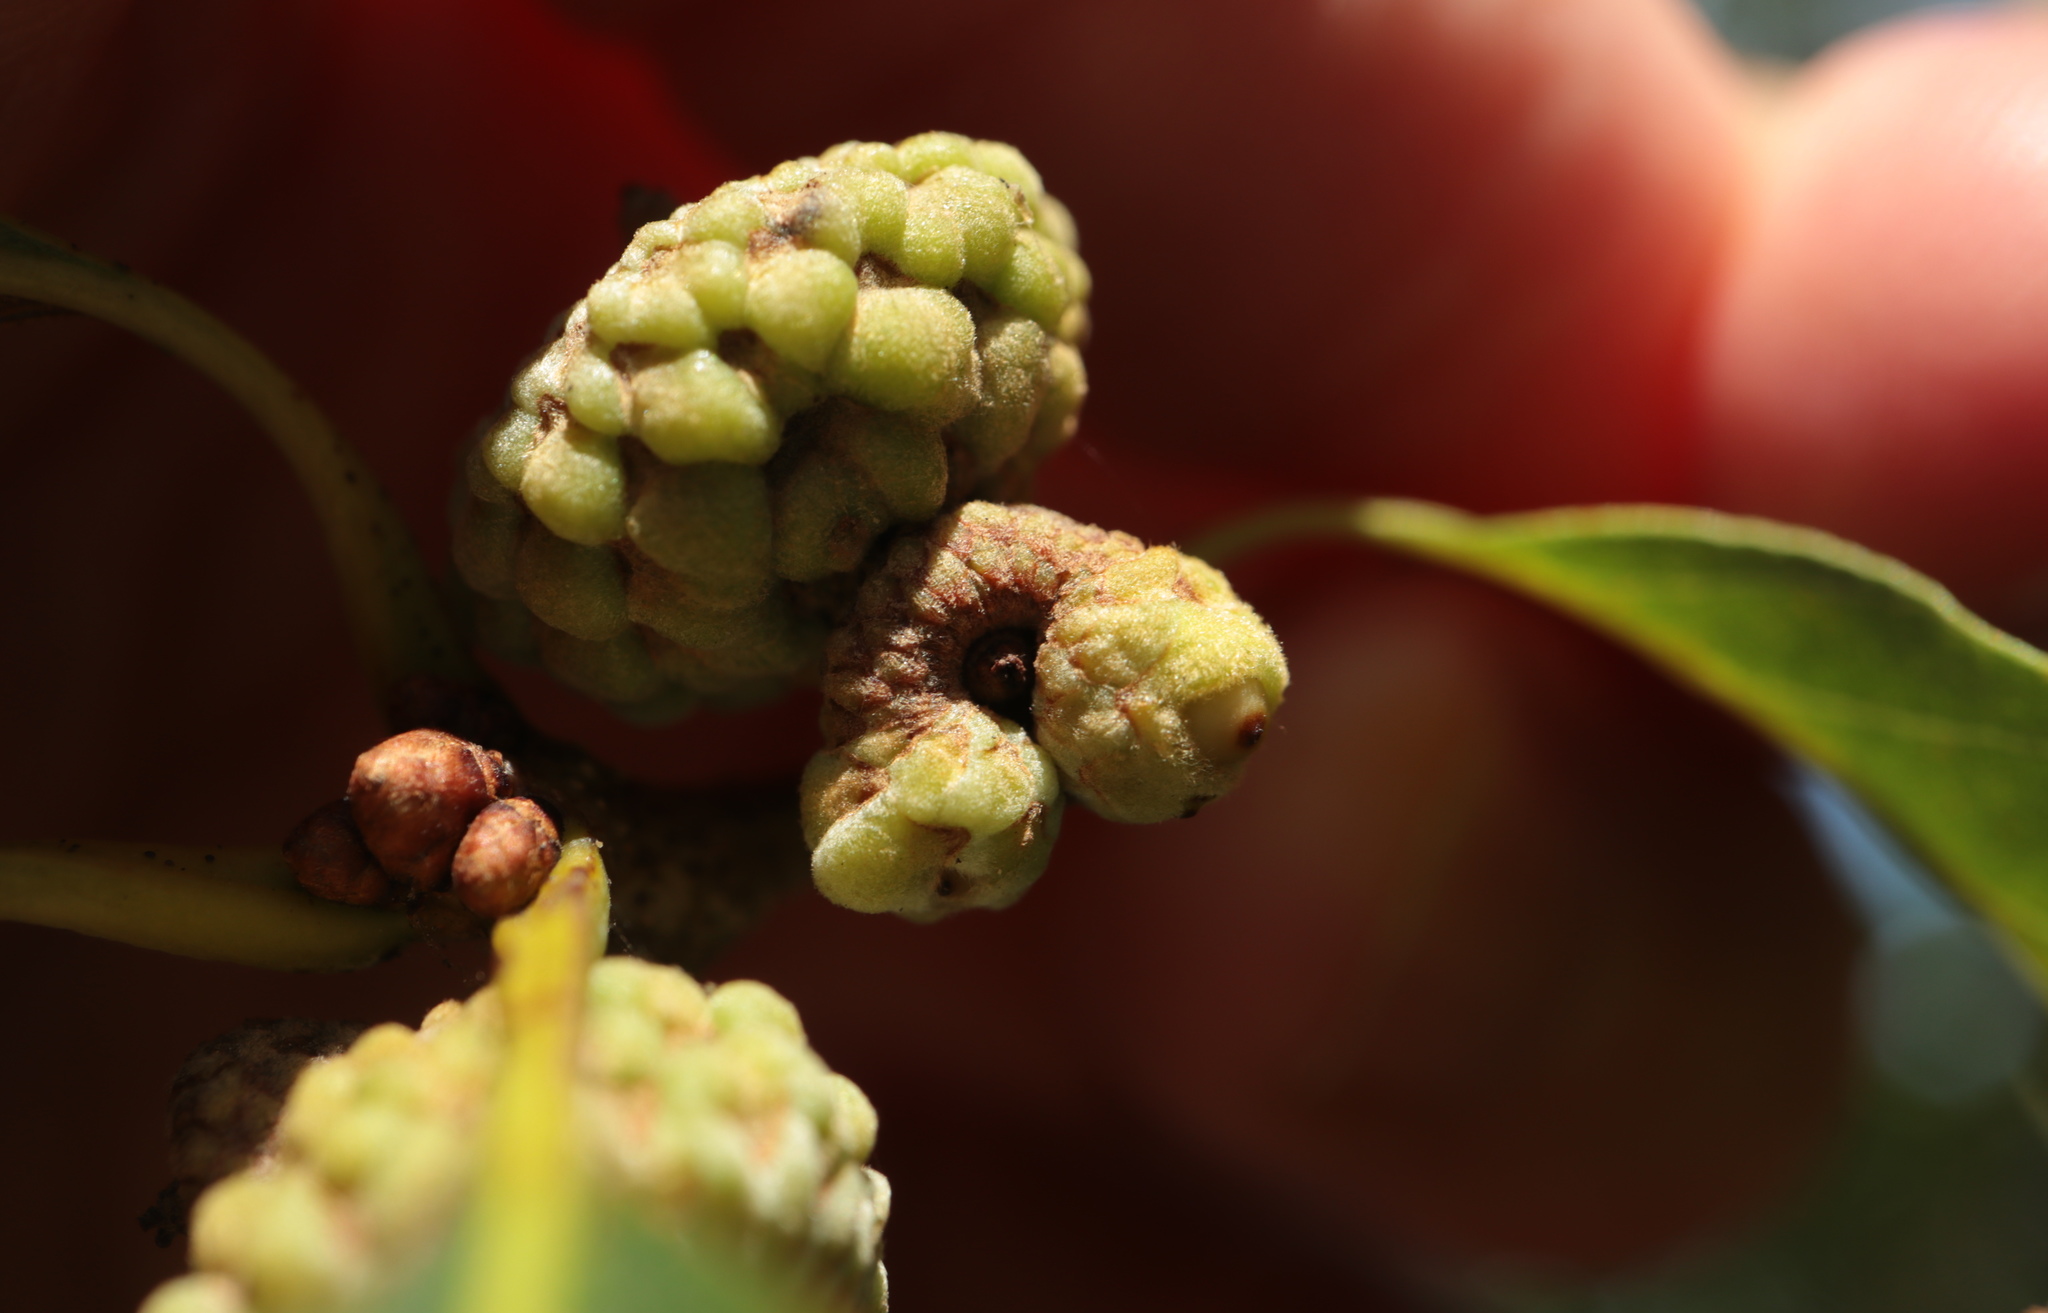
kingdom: Animalia
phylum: Arthropoda
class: Insecta
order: Hymenoptera
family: Cynipidae
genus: Callirhytis
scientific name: Callirhytis glandium
